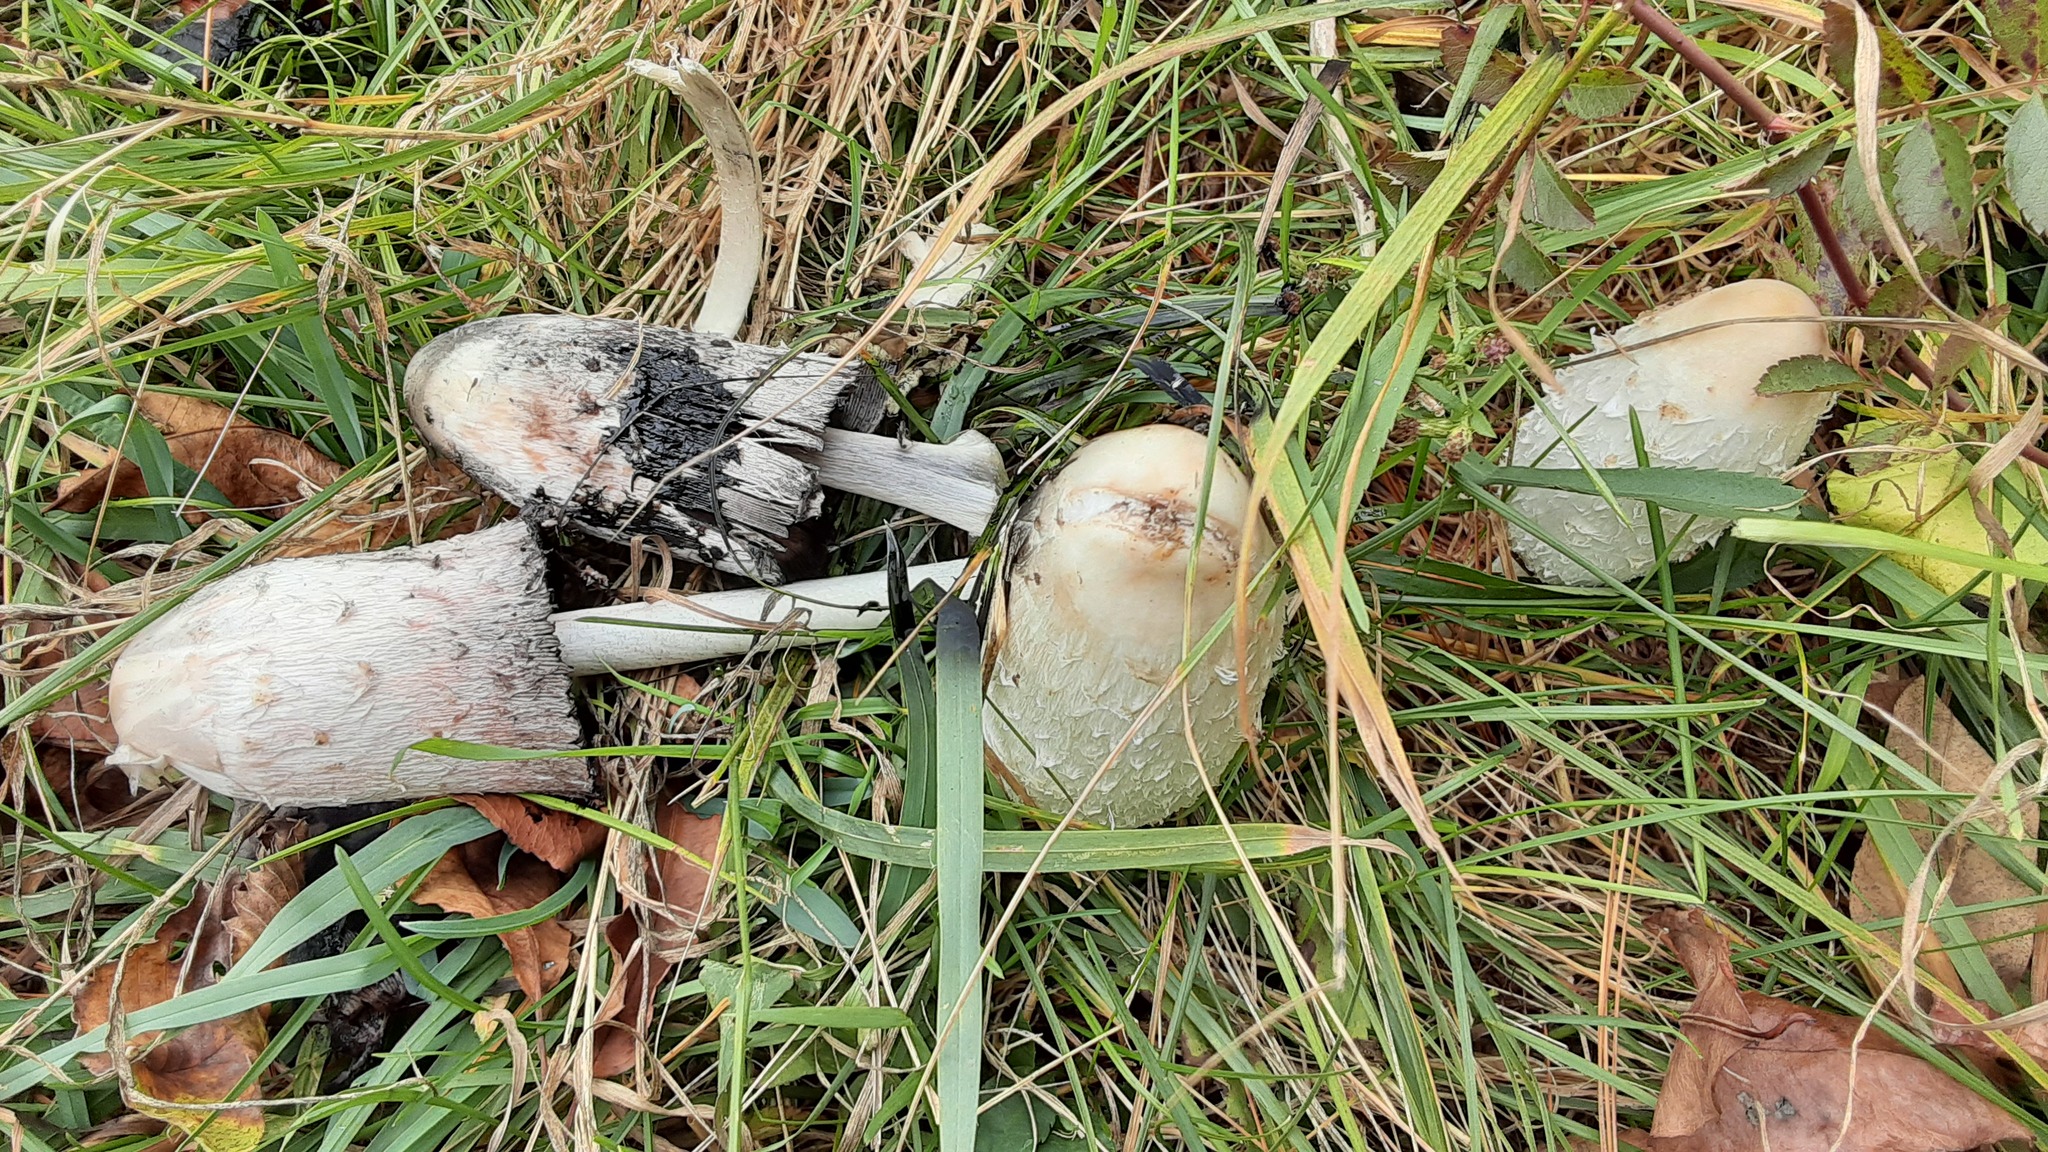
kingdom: Fungi
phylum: Basidiomycota
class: Agaricomycetes
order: Agaricales
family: Agaricaceae
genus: Coprinus
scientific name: Coprinus comatus
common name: Lawyer's wig
